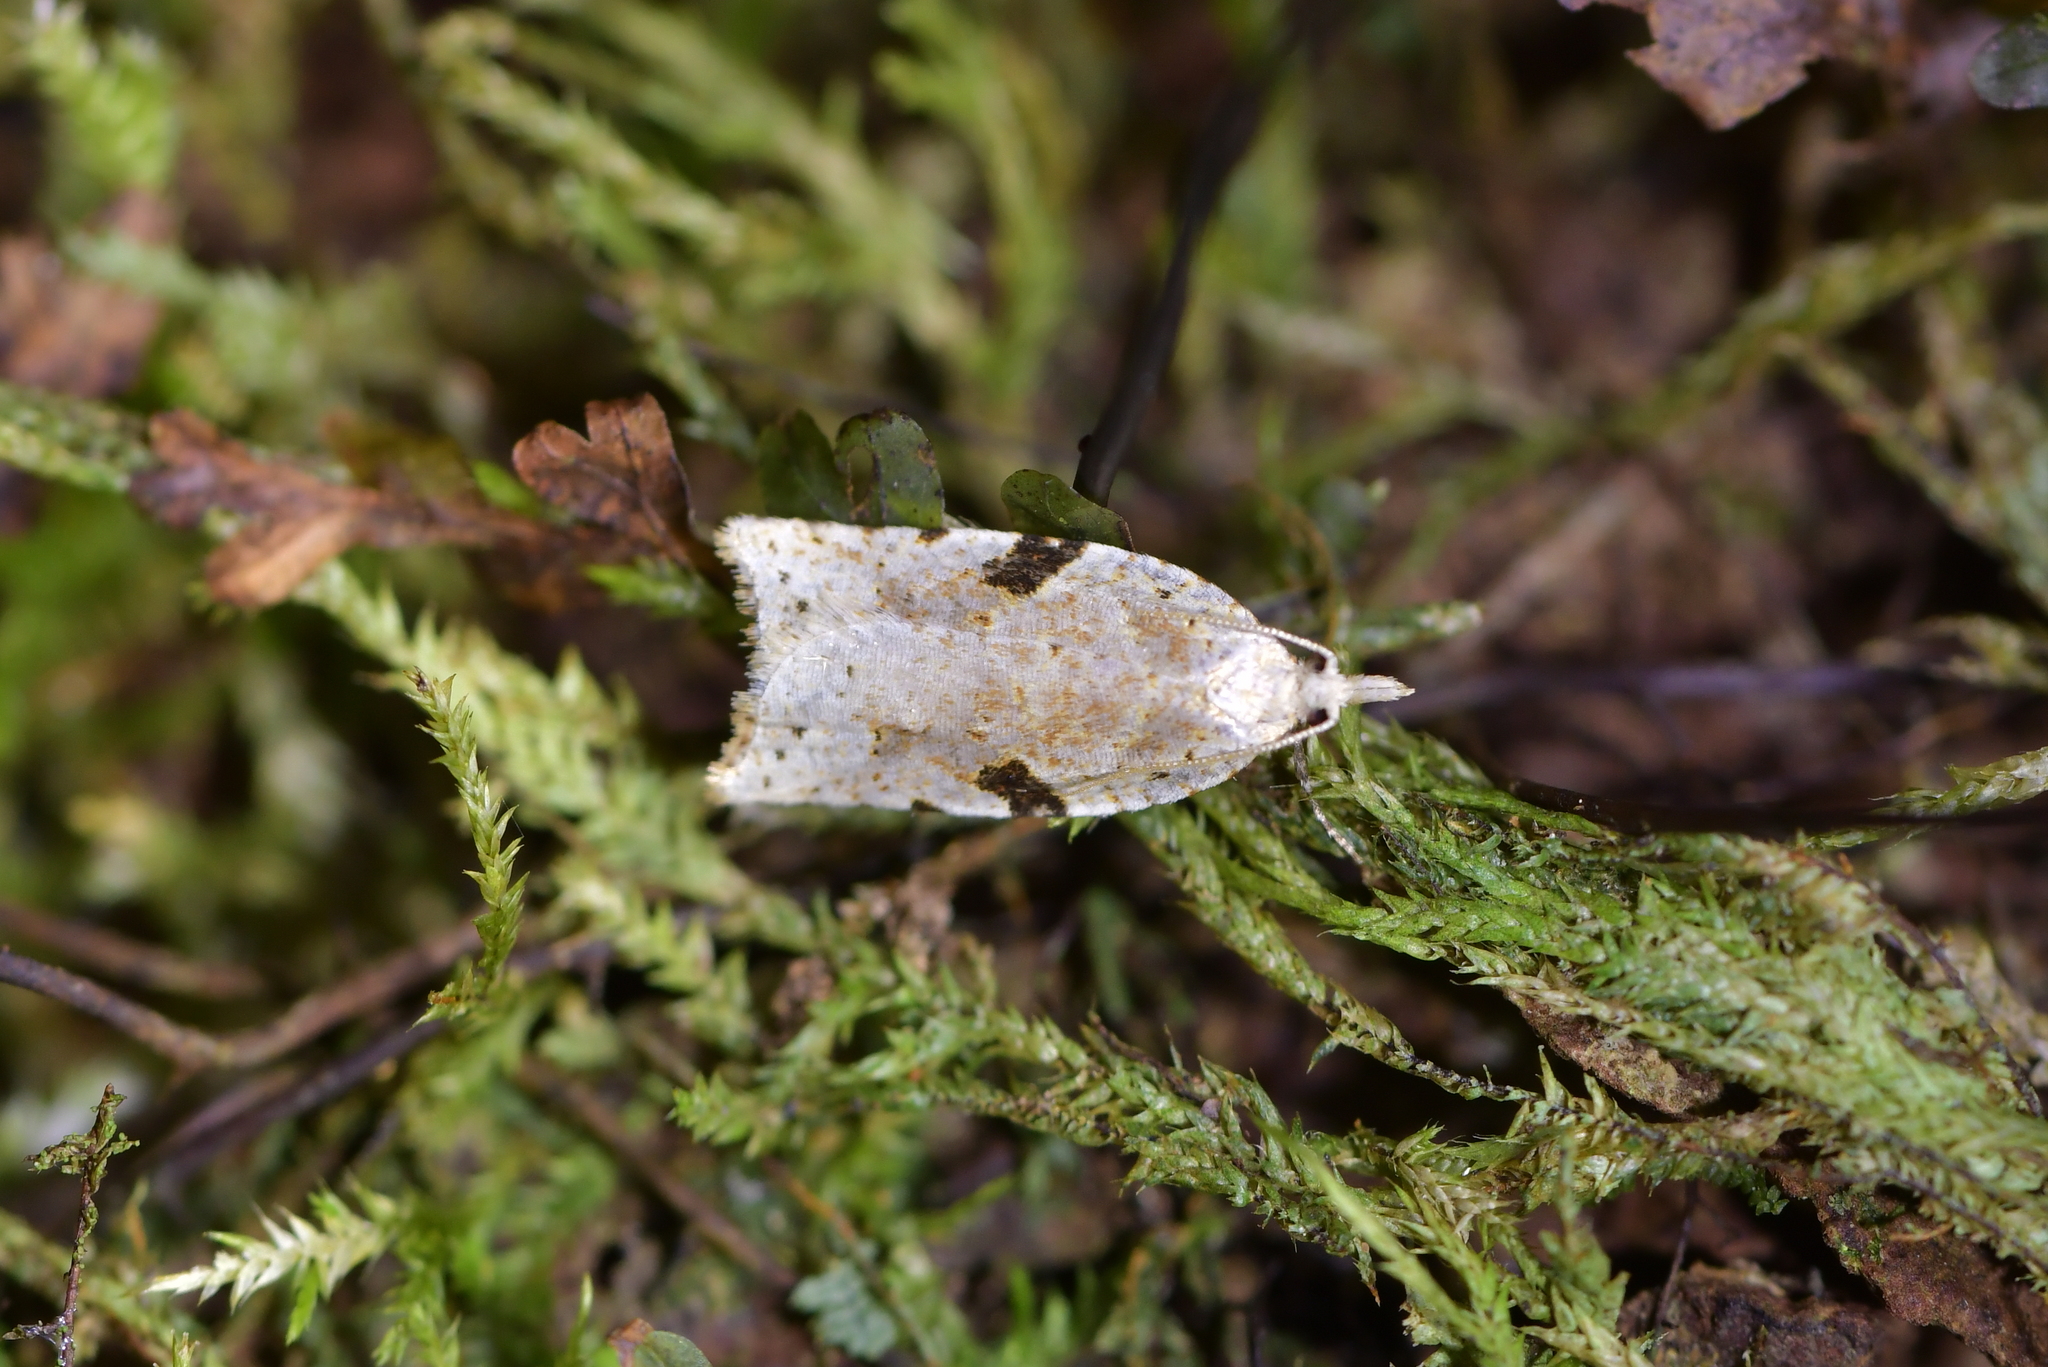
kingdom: Animalia
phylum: Arthropoda
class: Insecta
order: Lepidoptera
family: Tortricidae
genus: Leucotenes
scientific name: Leucotenes coprosmae
